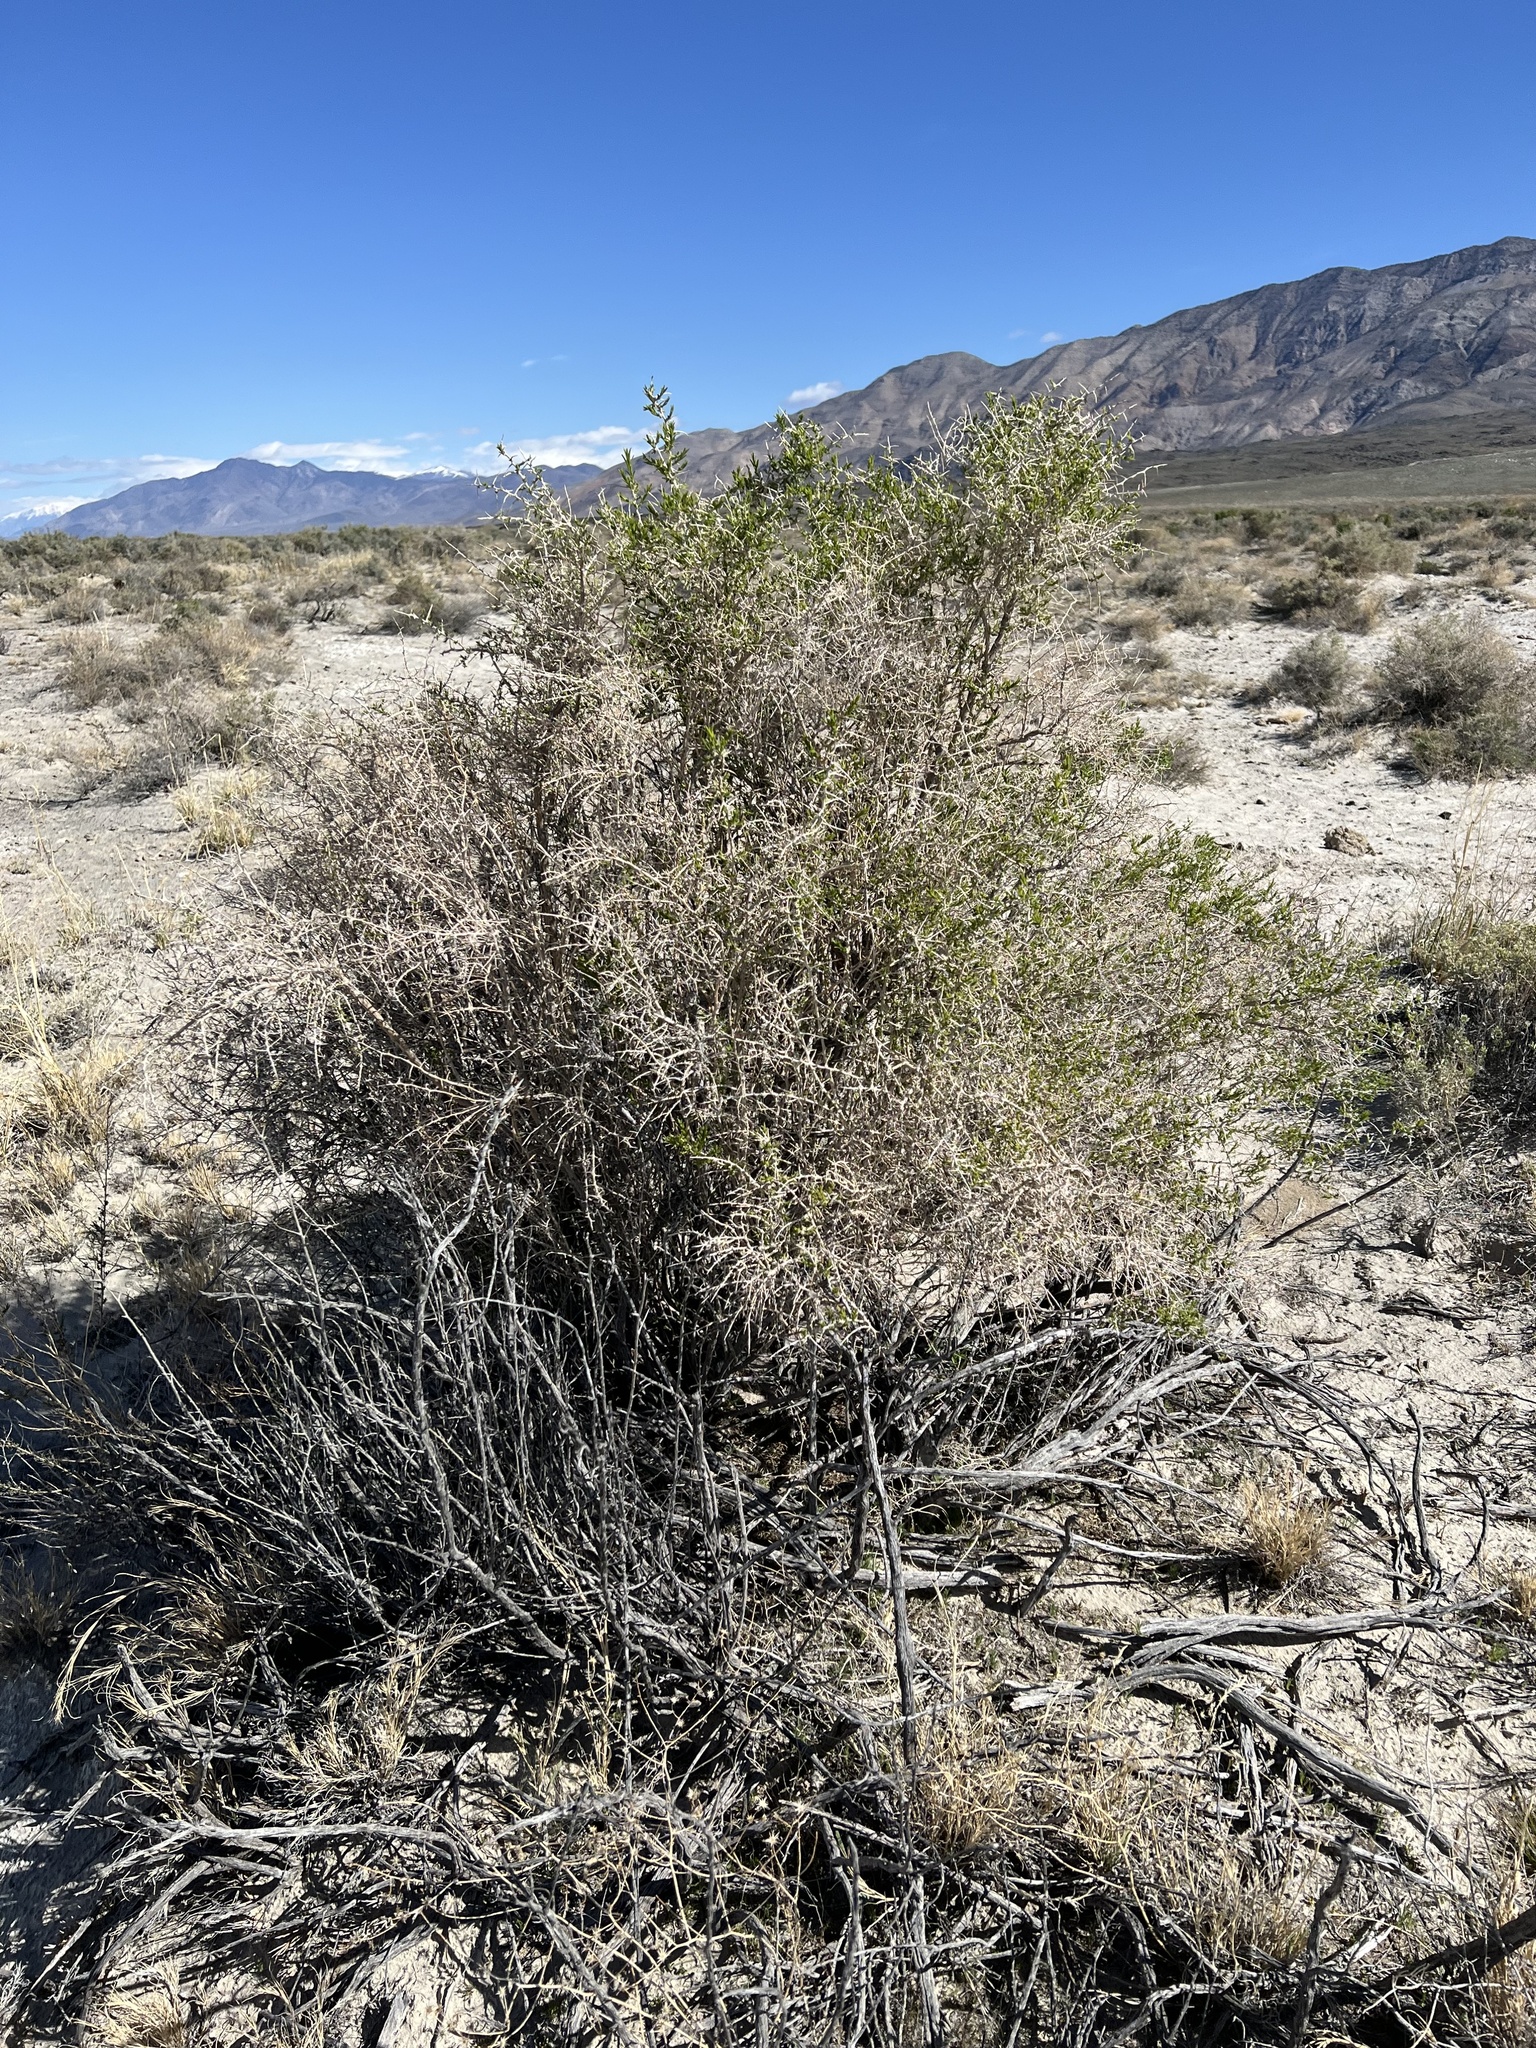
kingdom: Plantae
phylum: Tracheophyta
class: Magnoliopsida
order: Caryophyllales
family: Sarcobataceae
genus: Sarcobatus
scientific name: Sarcobatus vermiculatus
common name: Greasewood
